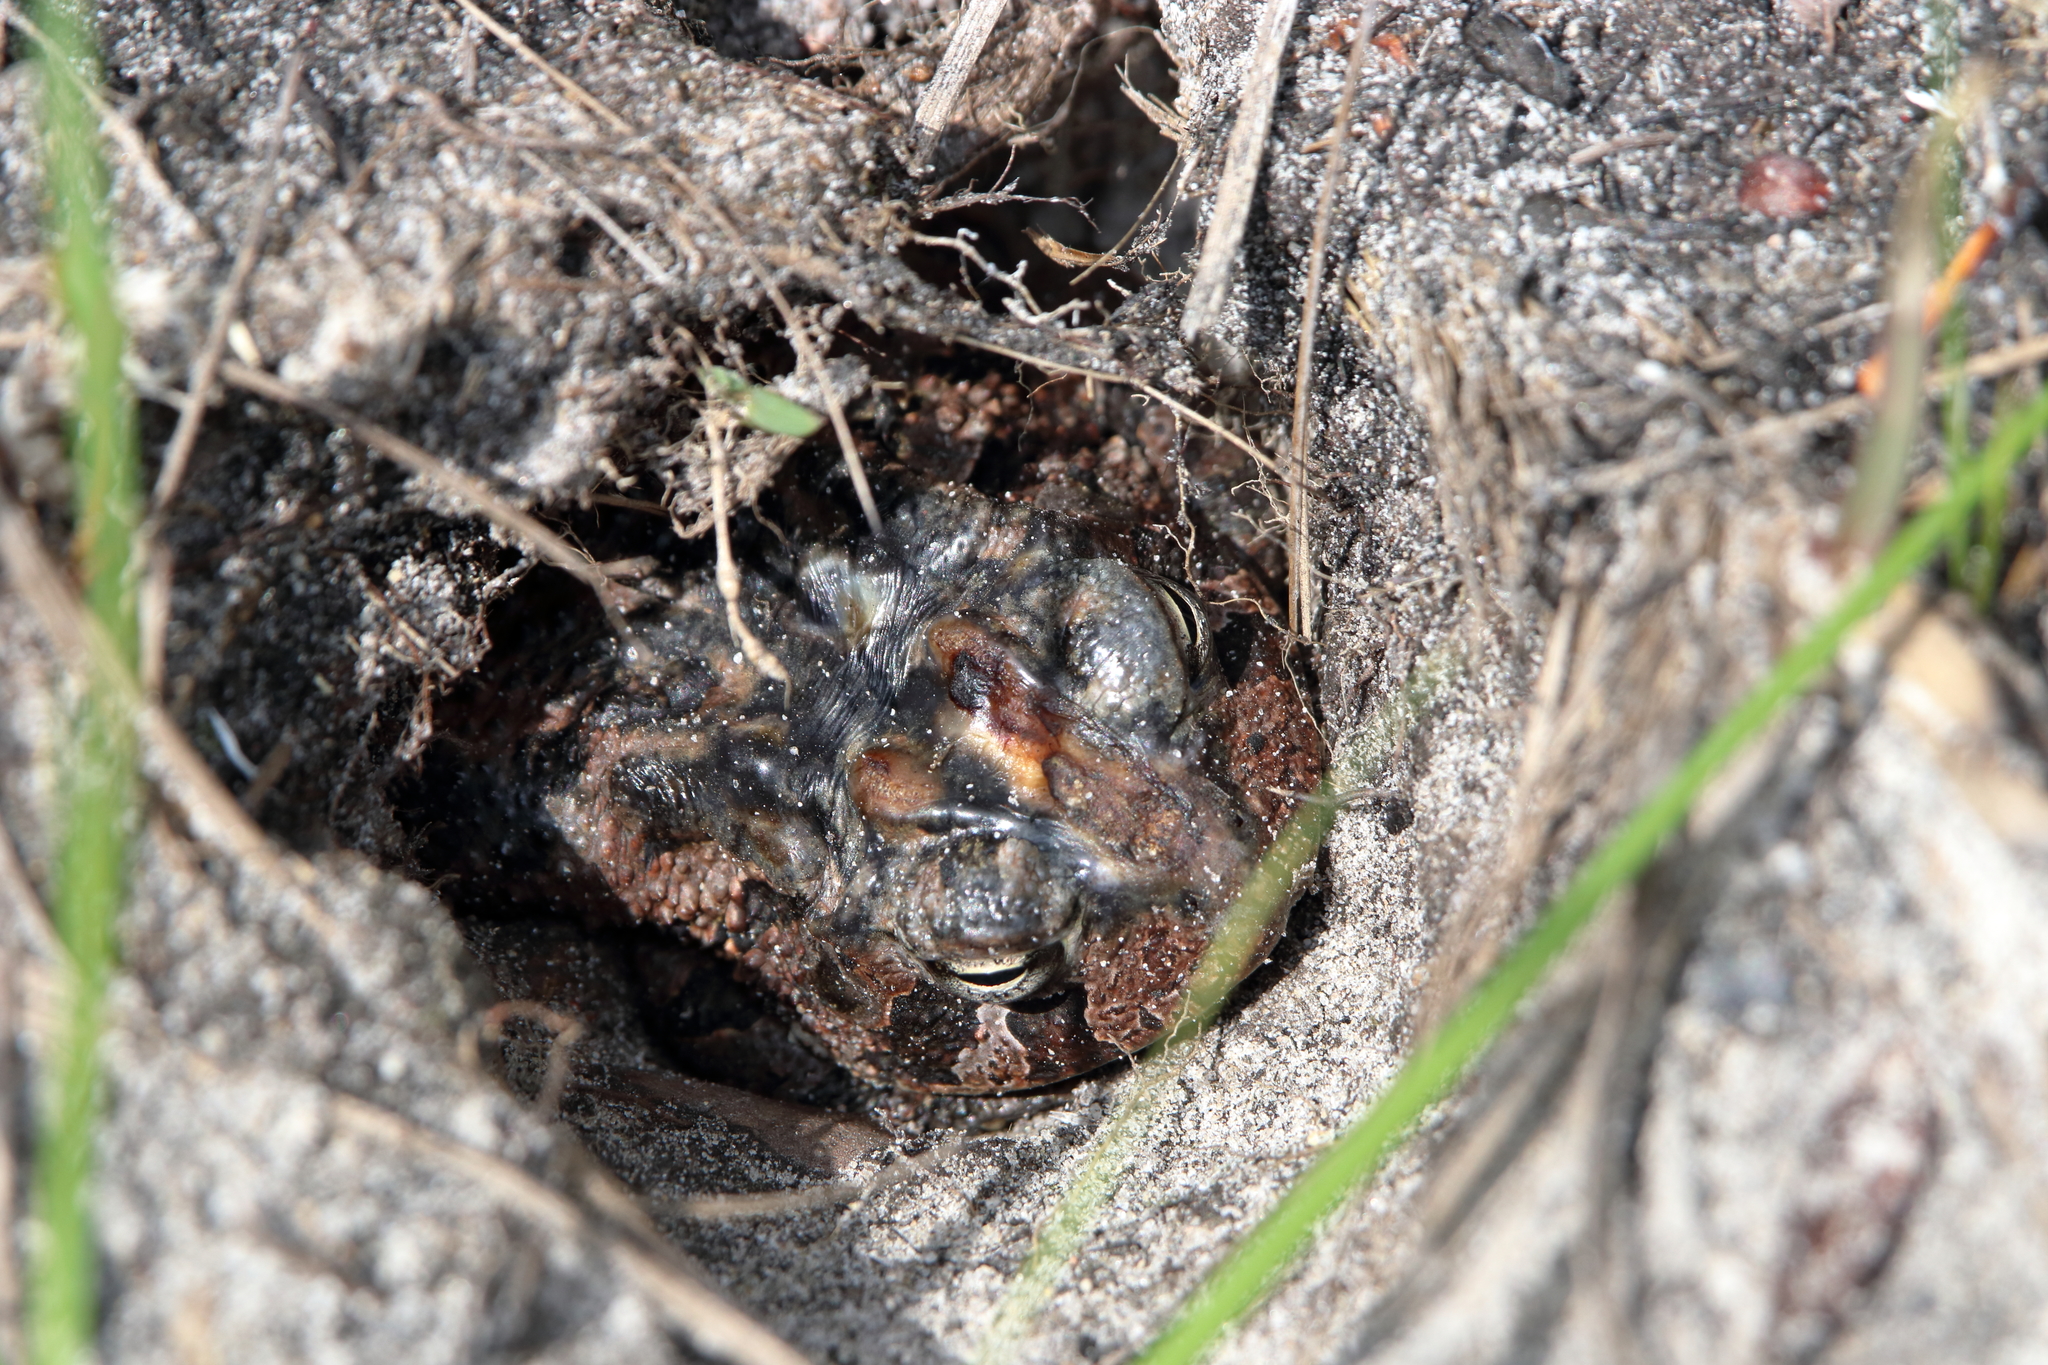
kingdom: Animalia
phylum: Chordata
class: Amphibia
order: Anura
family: Bufonidae
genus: Anaxyrus
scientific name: Anaxyrus terrestris
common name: Southern toad
